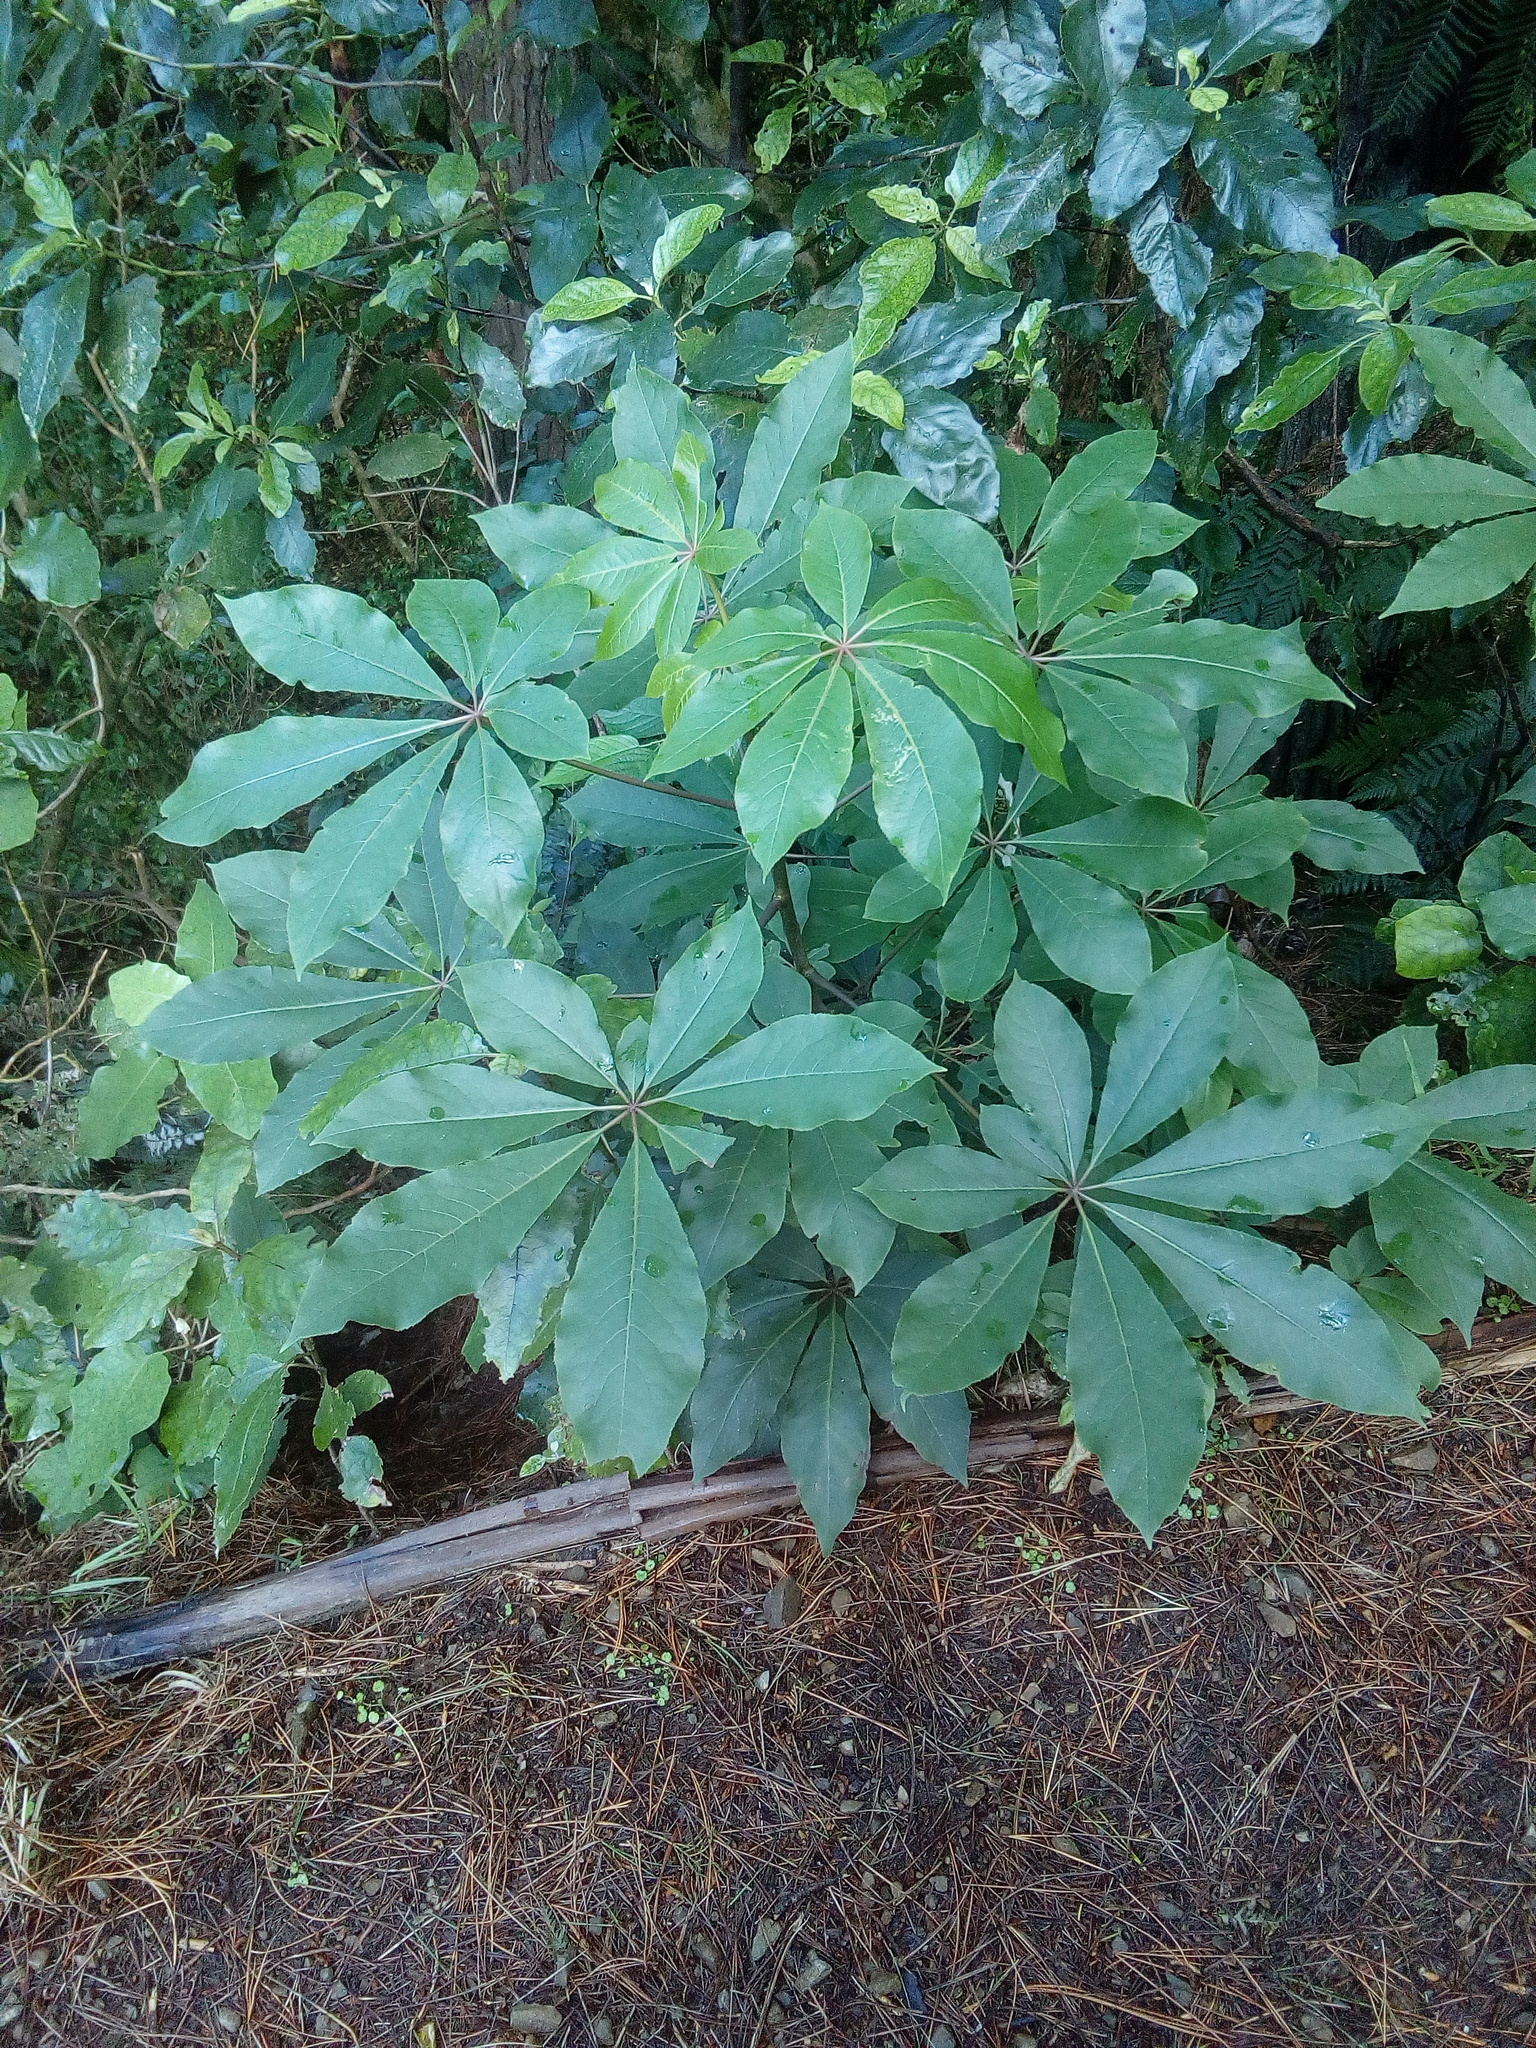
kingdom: Plantae
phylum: Tracheophyta
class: Magnoliopsida
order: Apiales
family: Araliaceae
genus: Schefflera
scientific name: Schefflera digitata
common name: Pate
